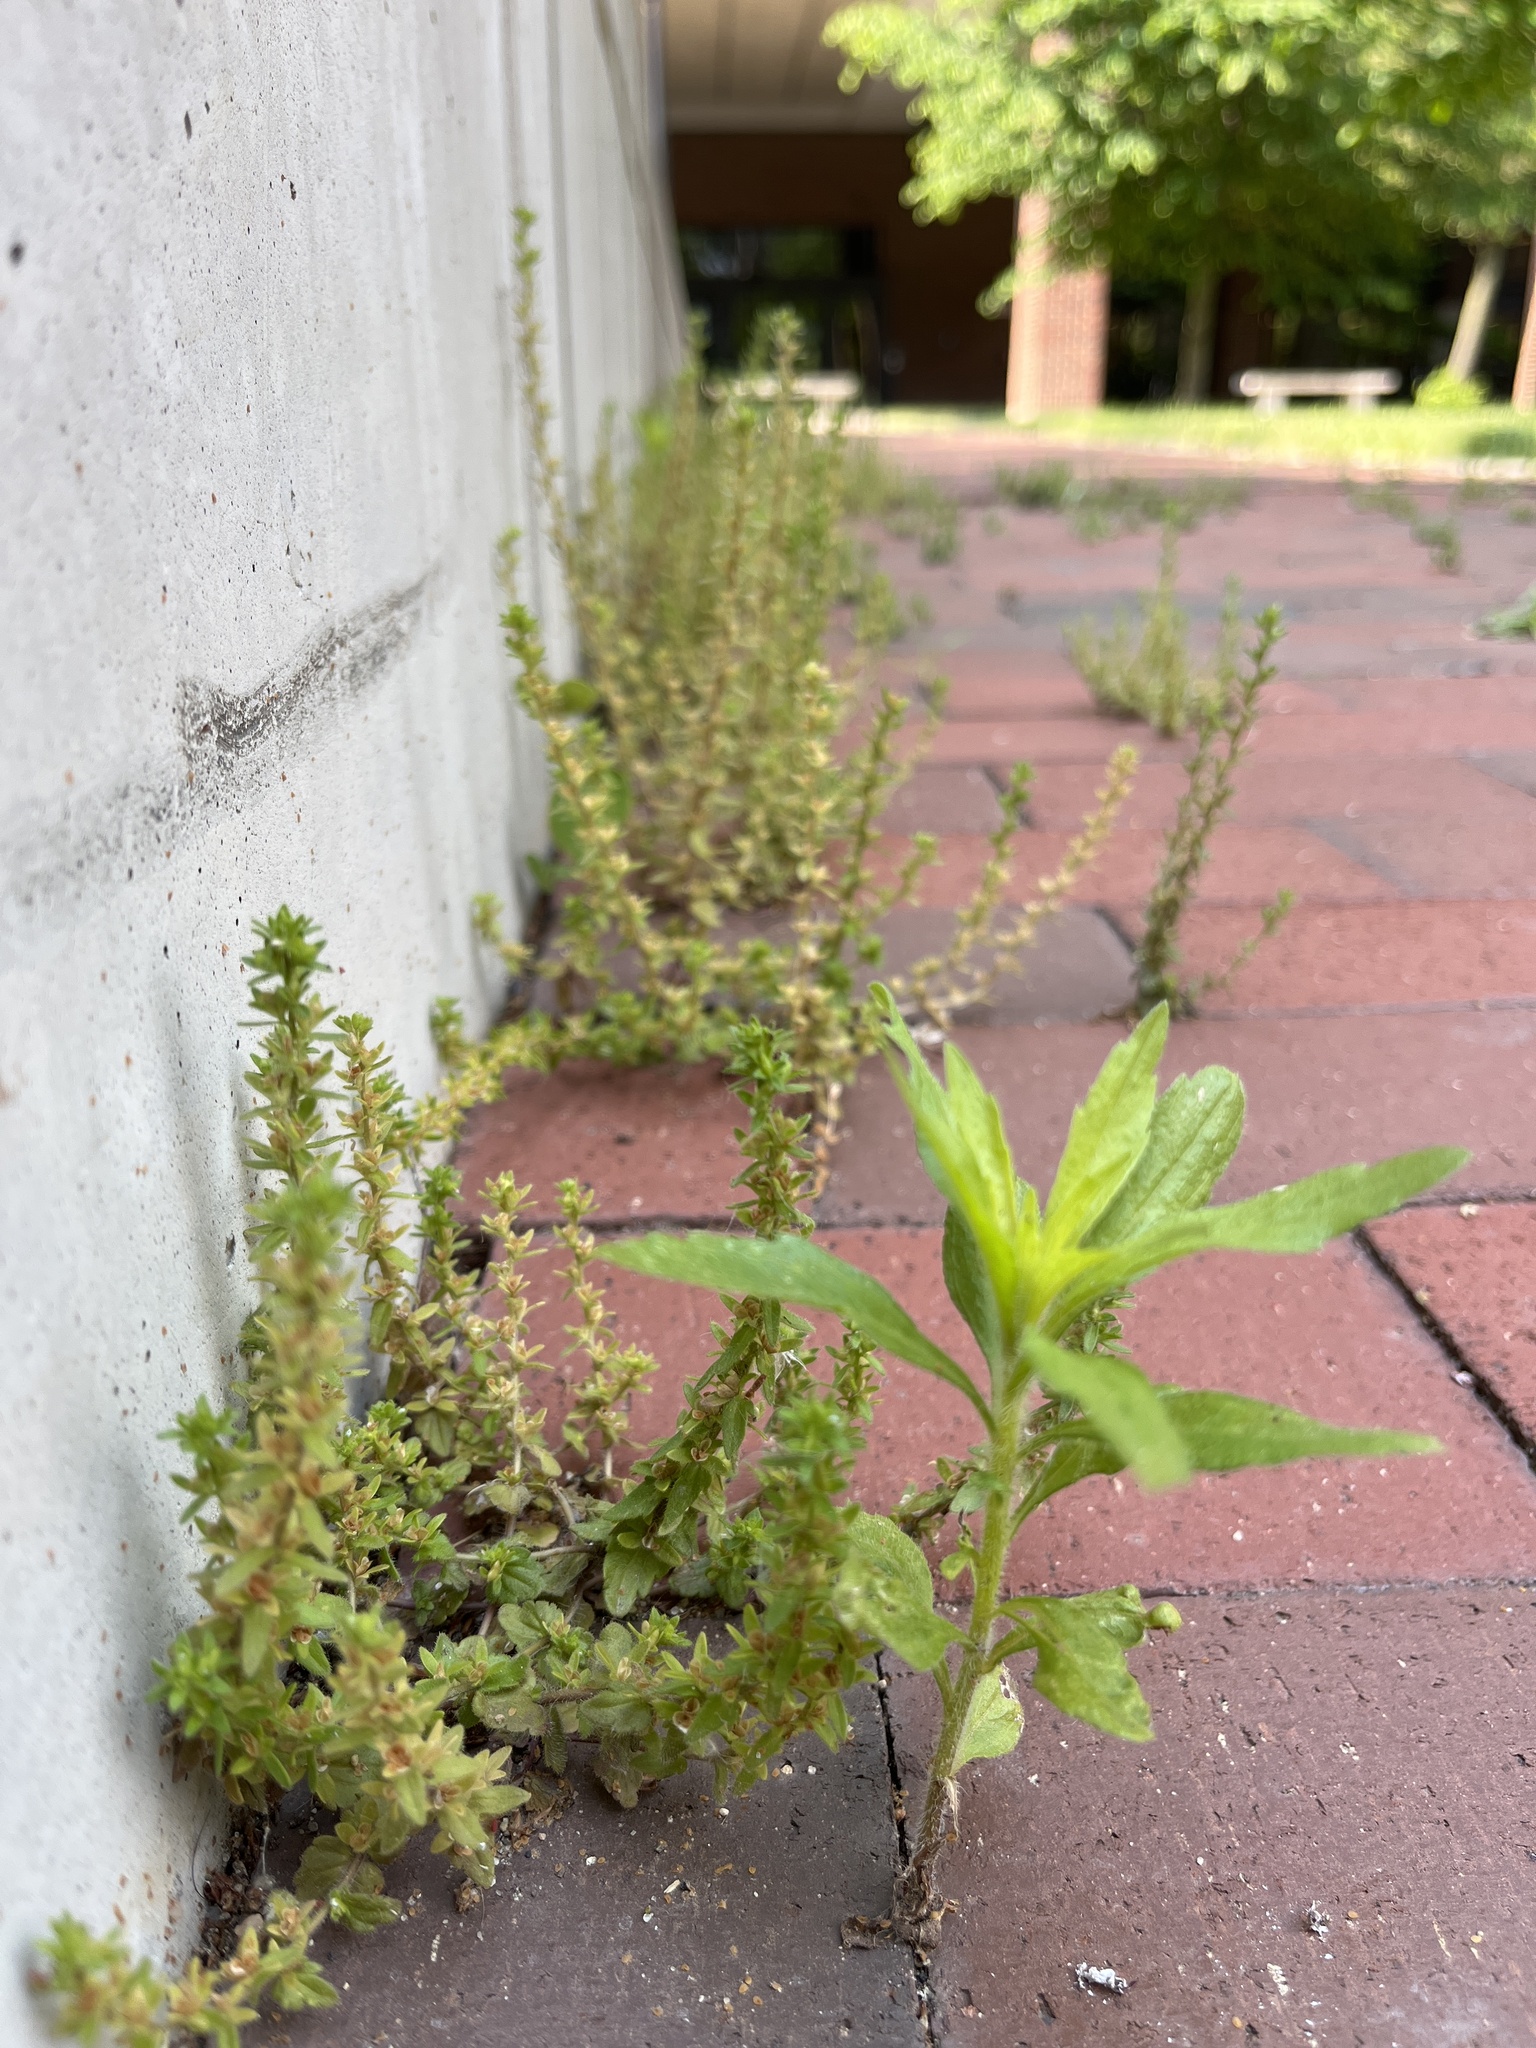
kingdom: Plantae
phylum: Tracheophyta
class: Magnoliopsida
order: Lamiales
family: Plantaginaceae
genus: Veronica
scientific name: Veronica arvensis
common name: Corn speedwell
